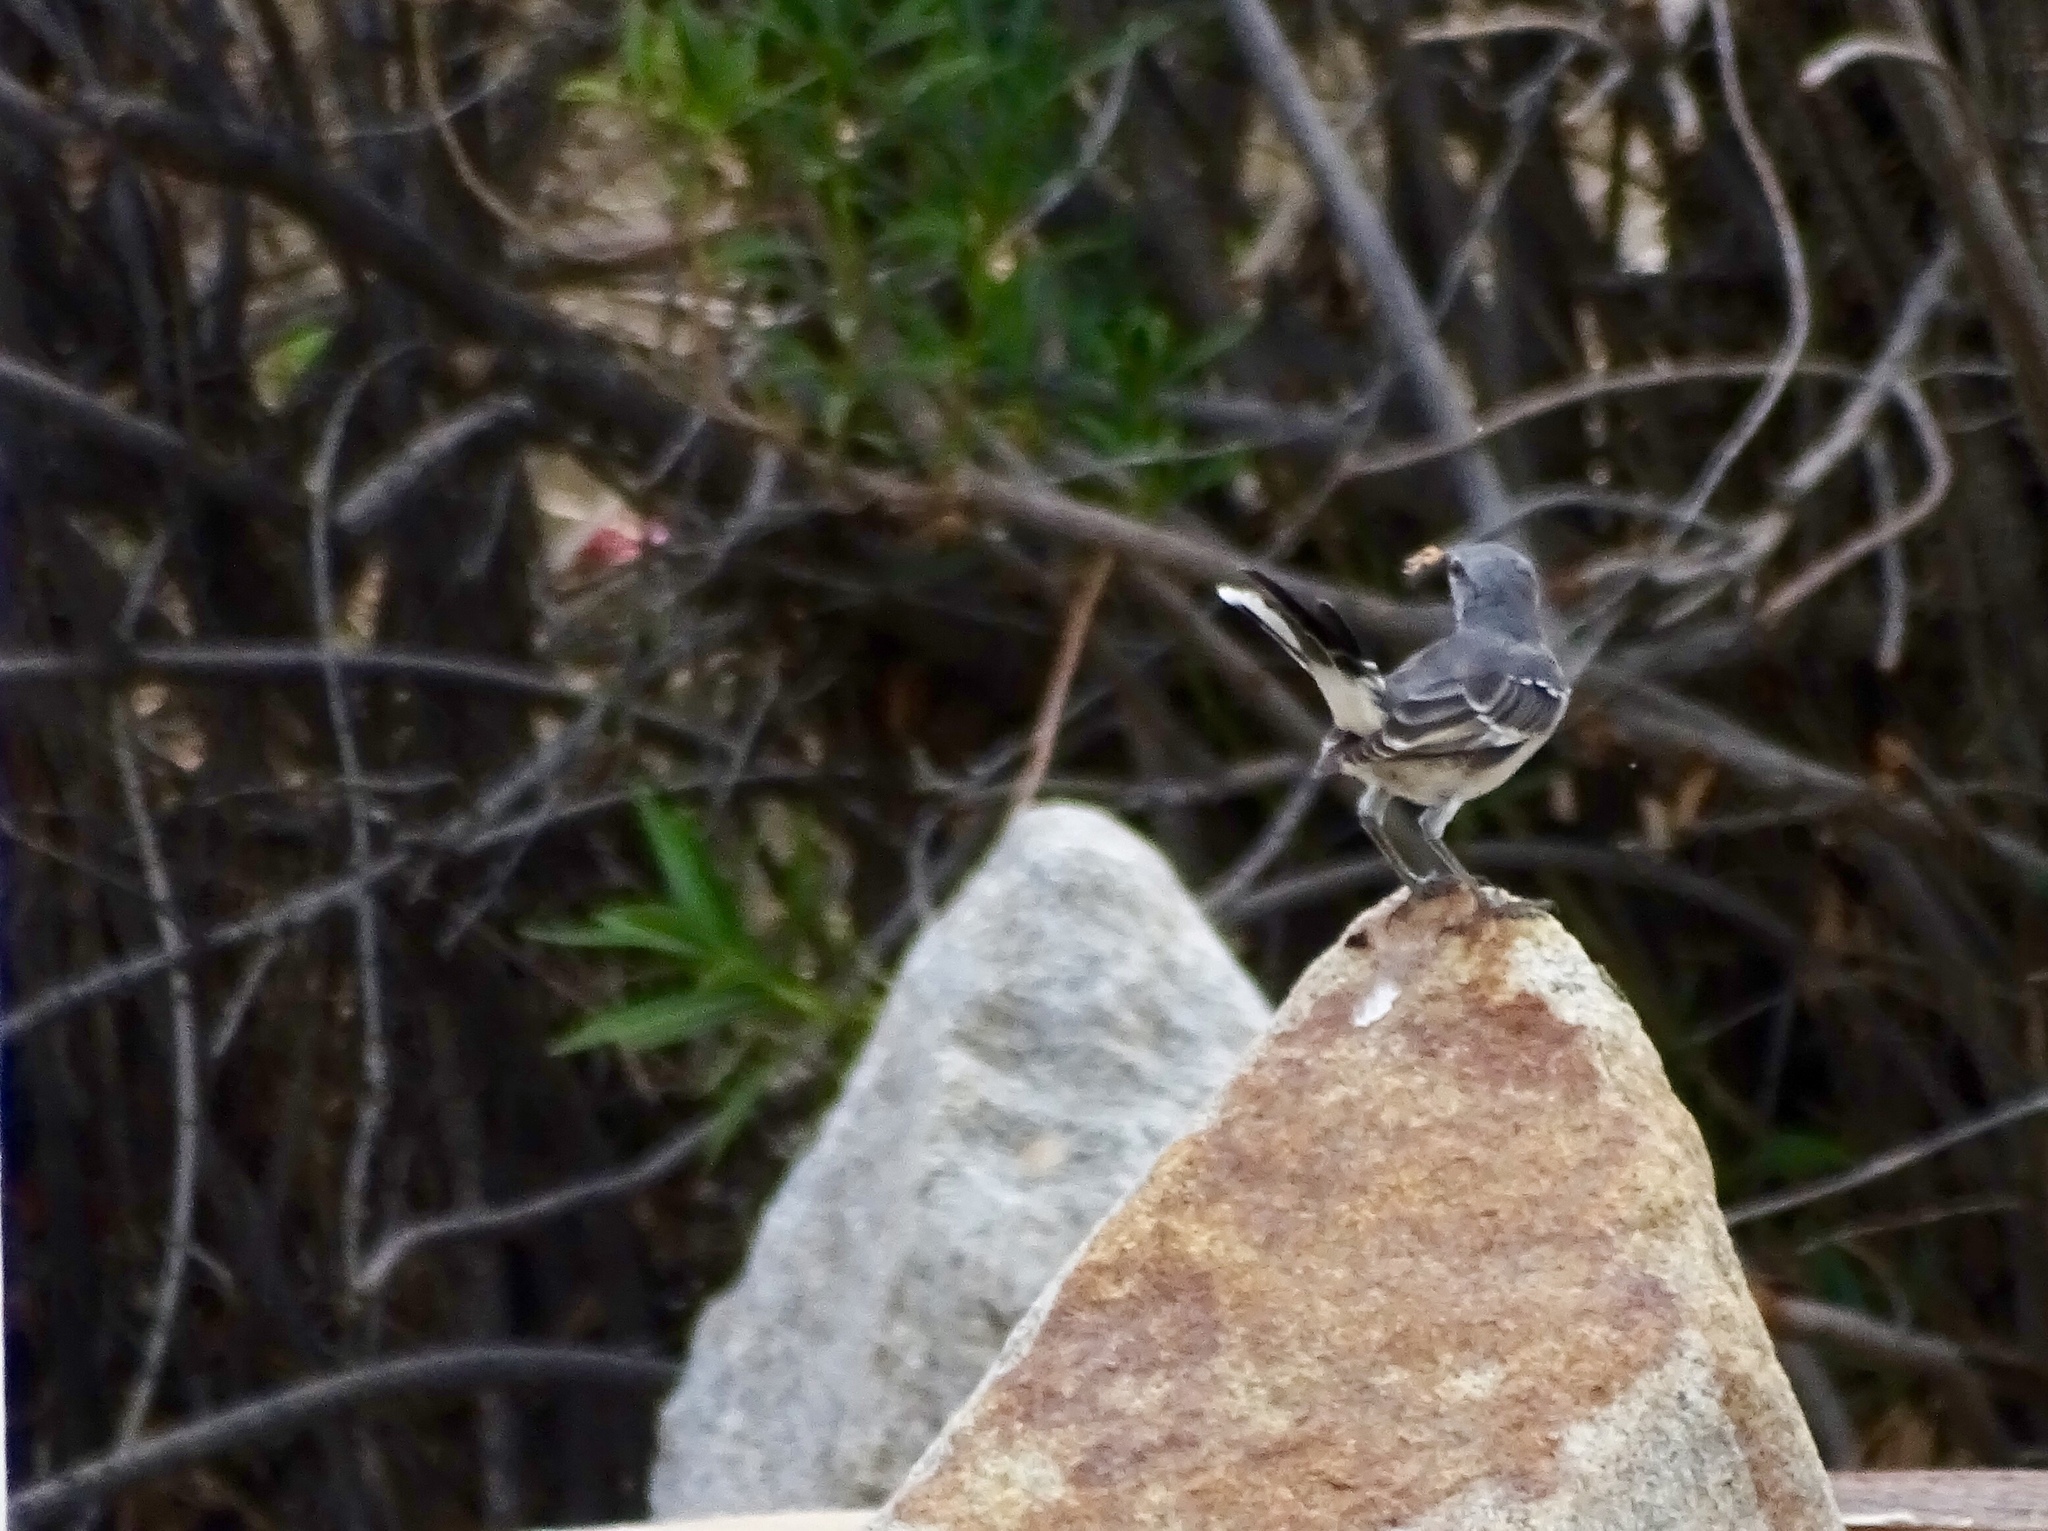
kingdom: Animalia
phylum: Chordata
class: Aves
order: Passeriformes
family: Mimidae
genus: Mimus
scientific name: Mimus polyglottos
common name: Northern mockingbird
